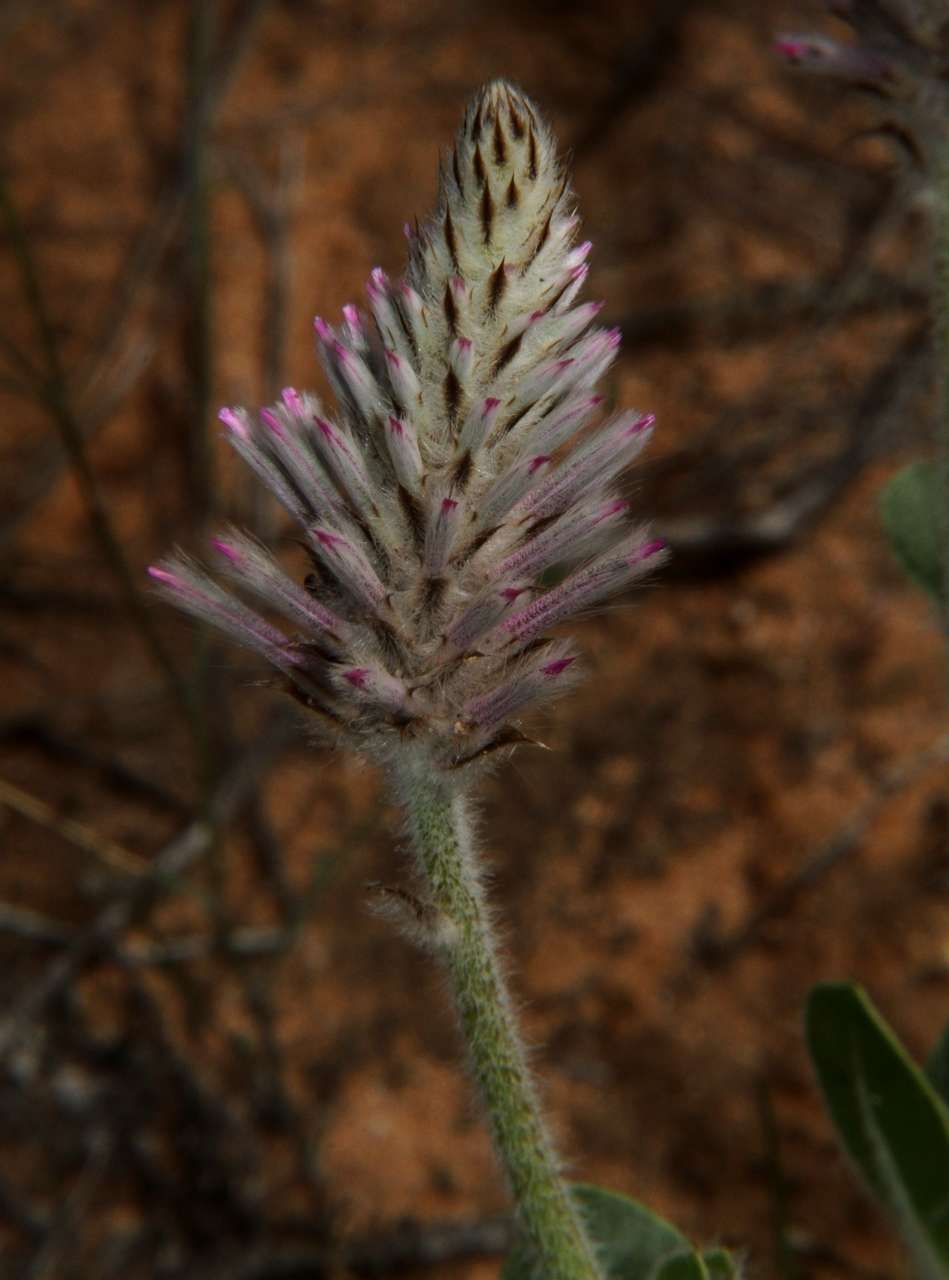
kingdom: Plantae
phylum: Tracheophyta
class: Magnoliopsida
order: Caryophyllales
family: Amaranthaceae
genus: Ptilotus
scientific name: Ptilotus exaltatus
